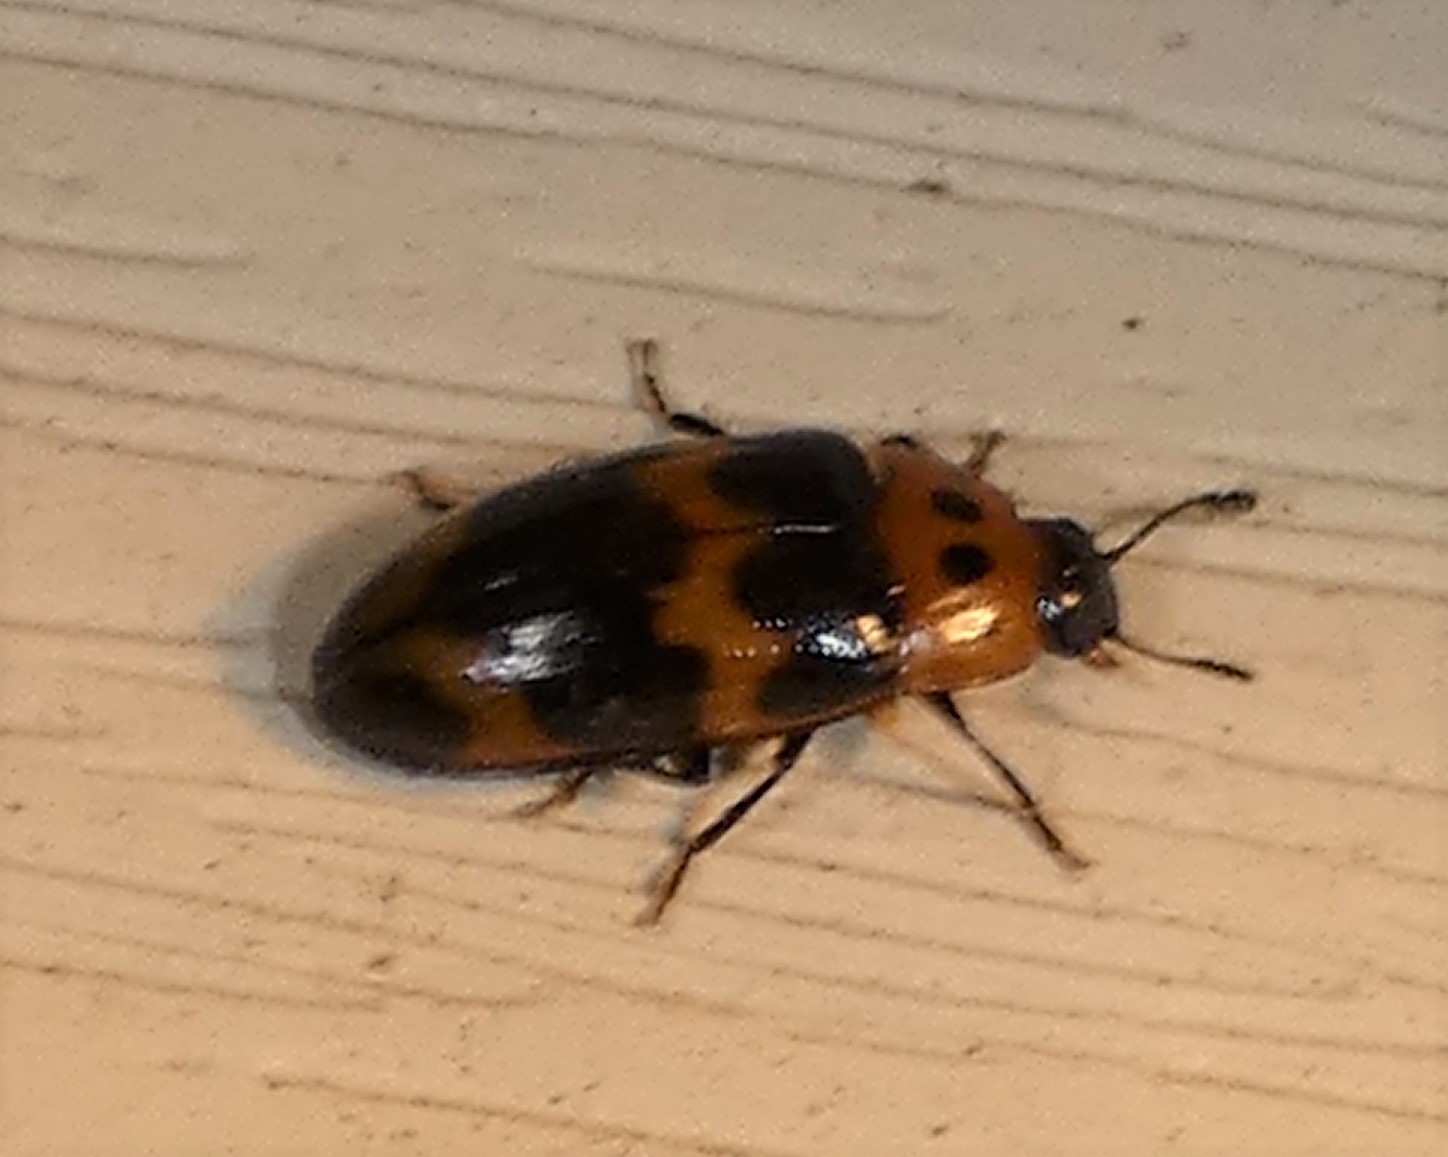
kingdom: Animalia
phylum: Arthropoda
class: Insecta
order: Coleoptera
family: Erotylidae
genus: Ischyrus
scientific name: Ischyrus quadripunctatus
